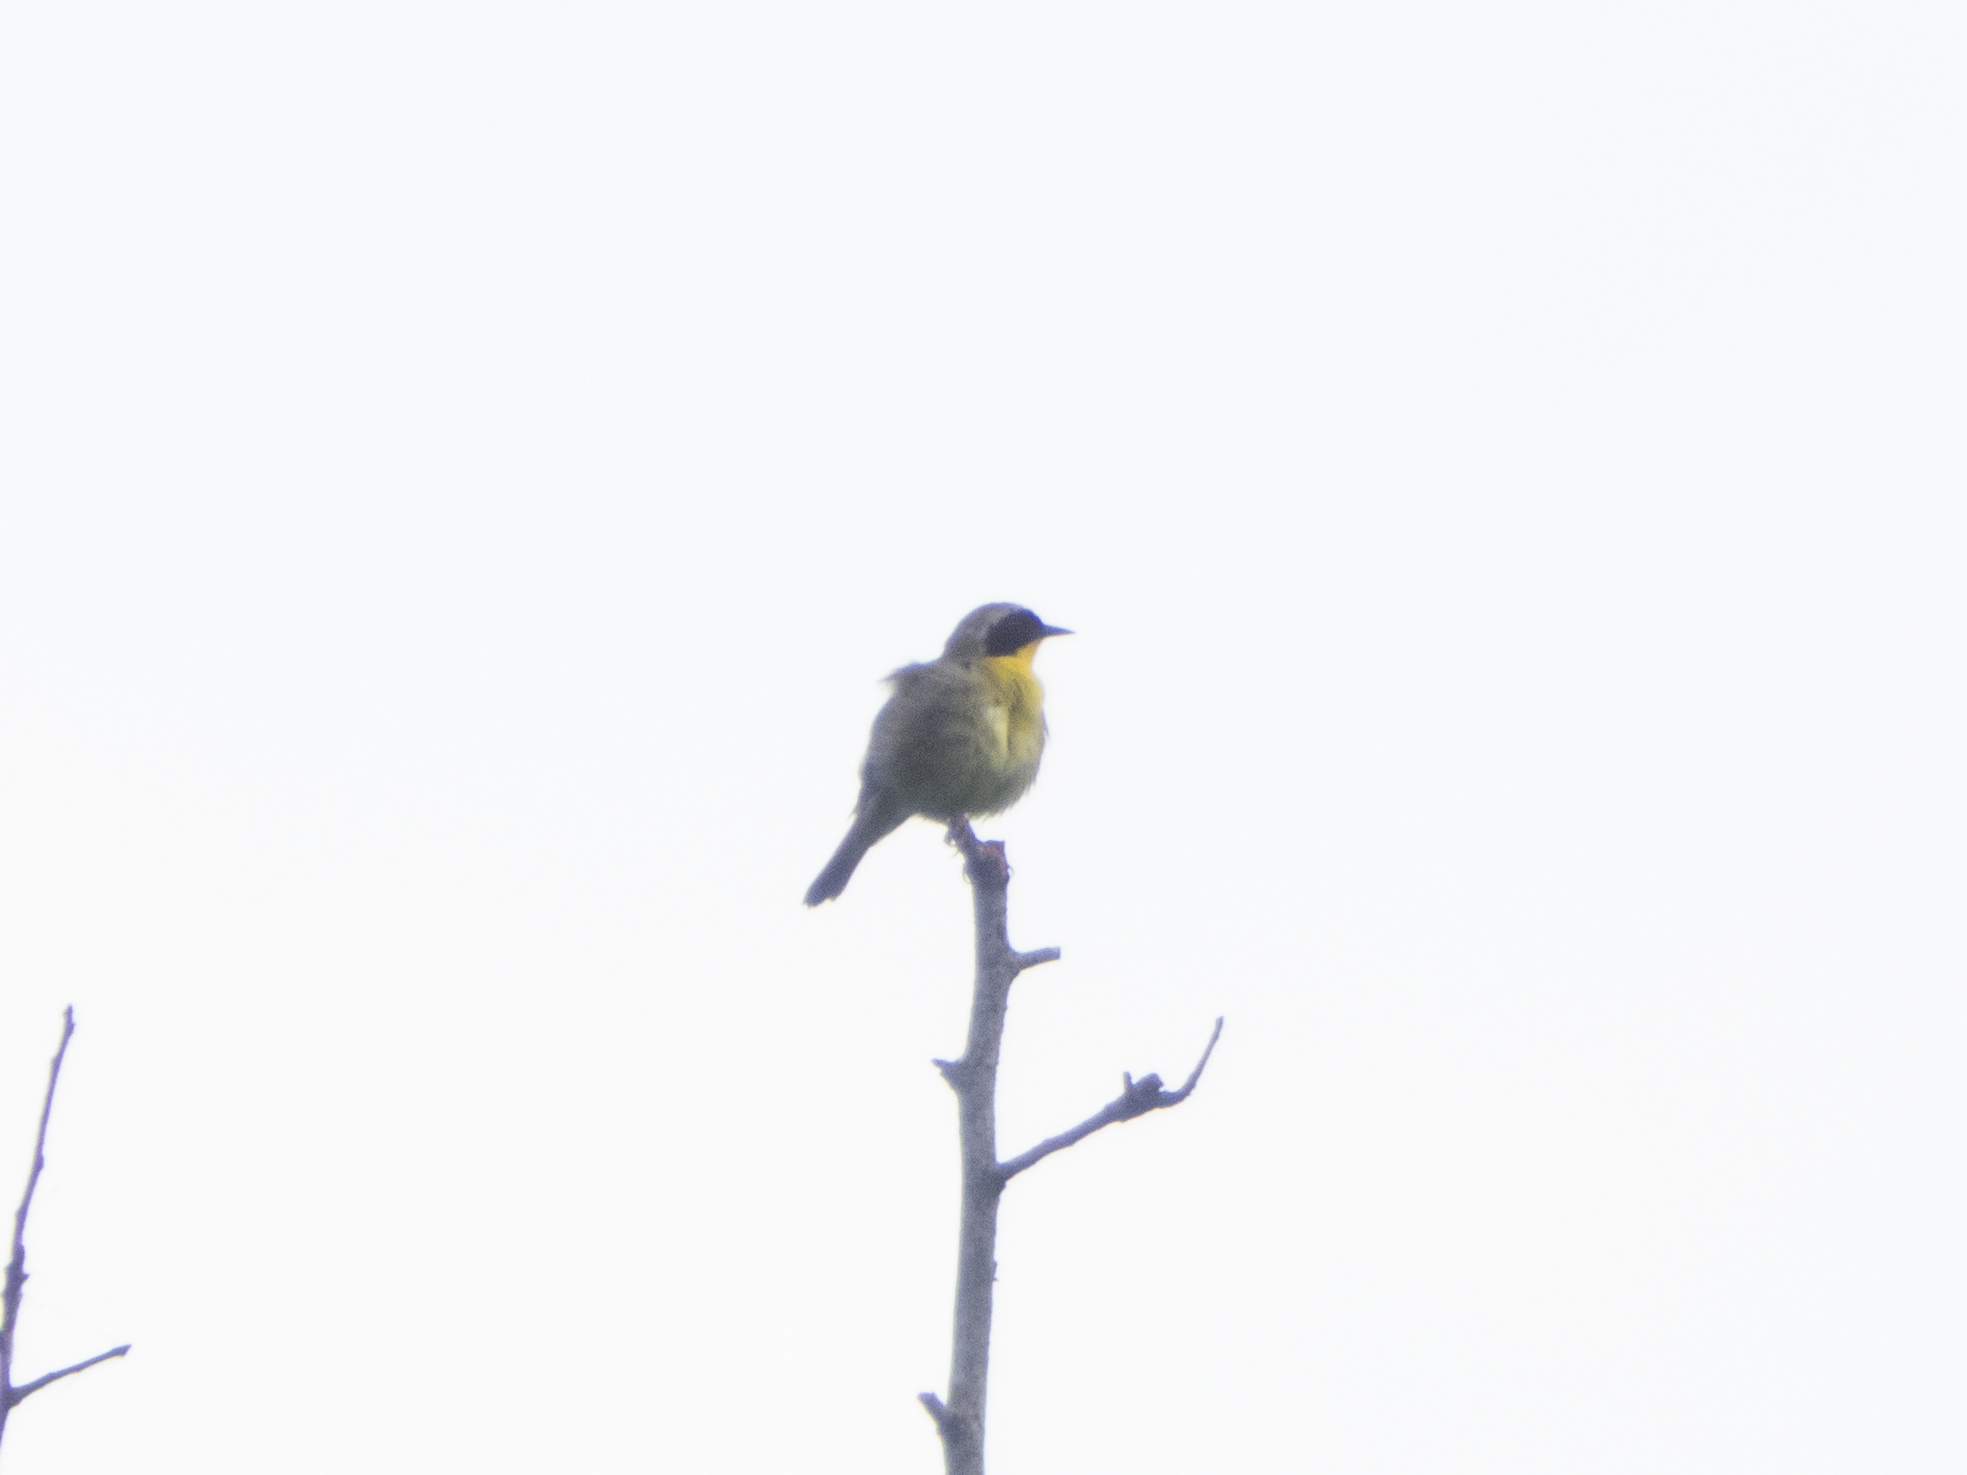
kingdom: Animalia
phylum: Chordata
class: Aves
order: Passeriformes
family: Parulidae
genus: Geothlypis
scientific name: Geothlypis trichas
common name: Common yellowthroat
